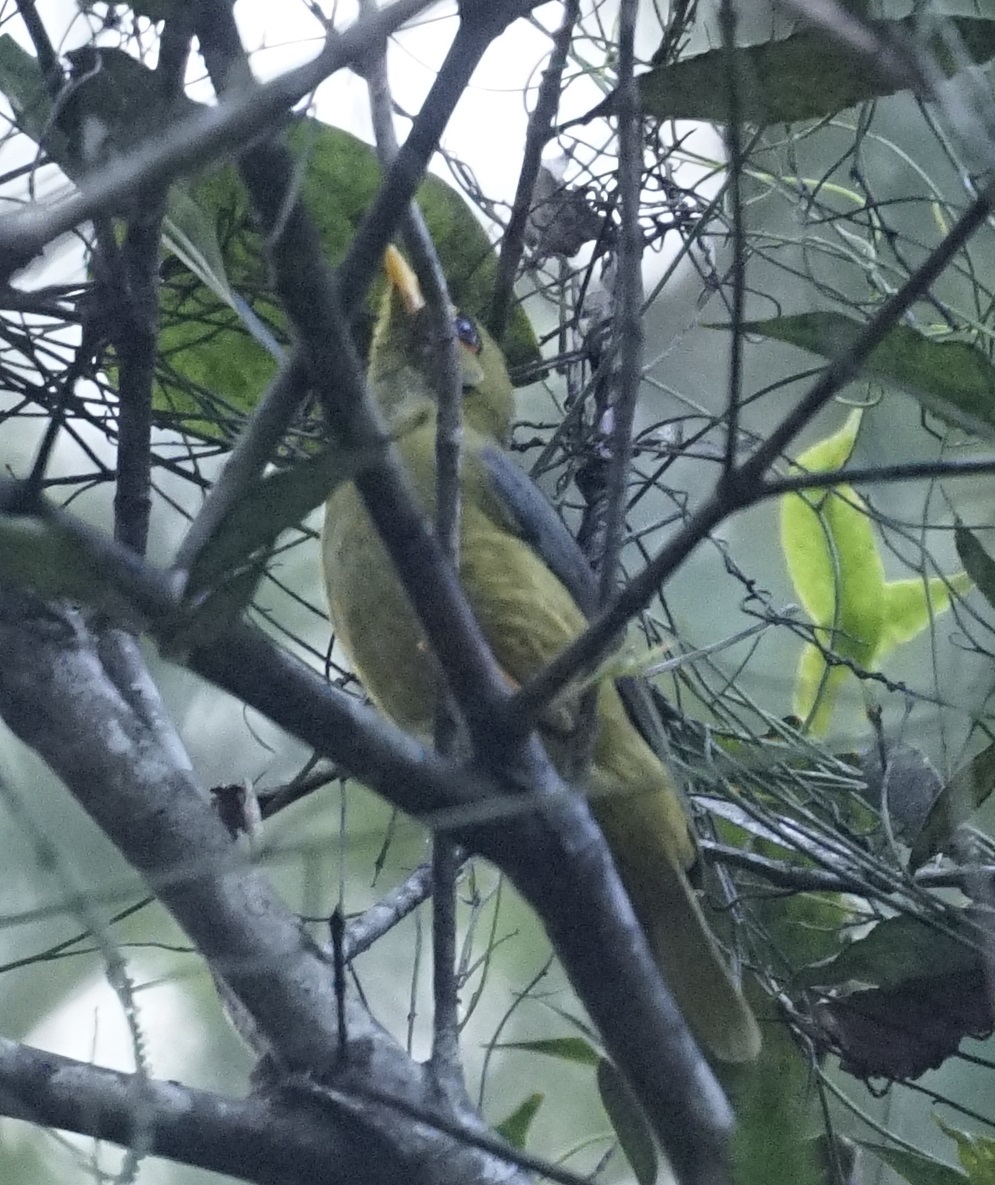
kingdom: Animalia
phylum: Chordata
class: Aves
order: Passeriformes
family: Meliphagidae
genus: Manorina
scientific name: Manorina melanophrys
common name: Bell miner
